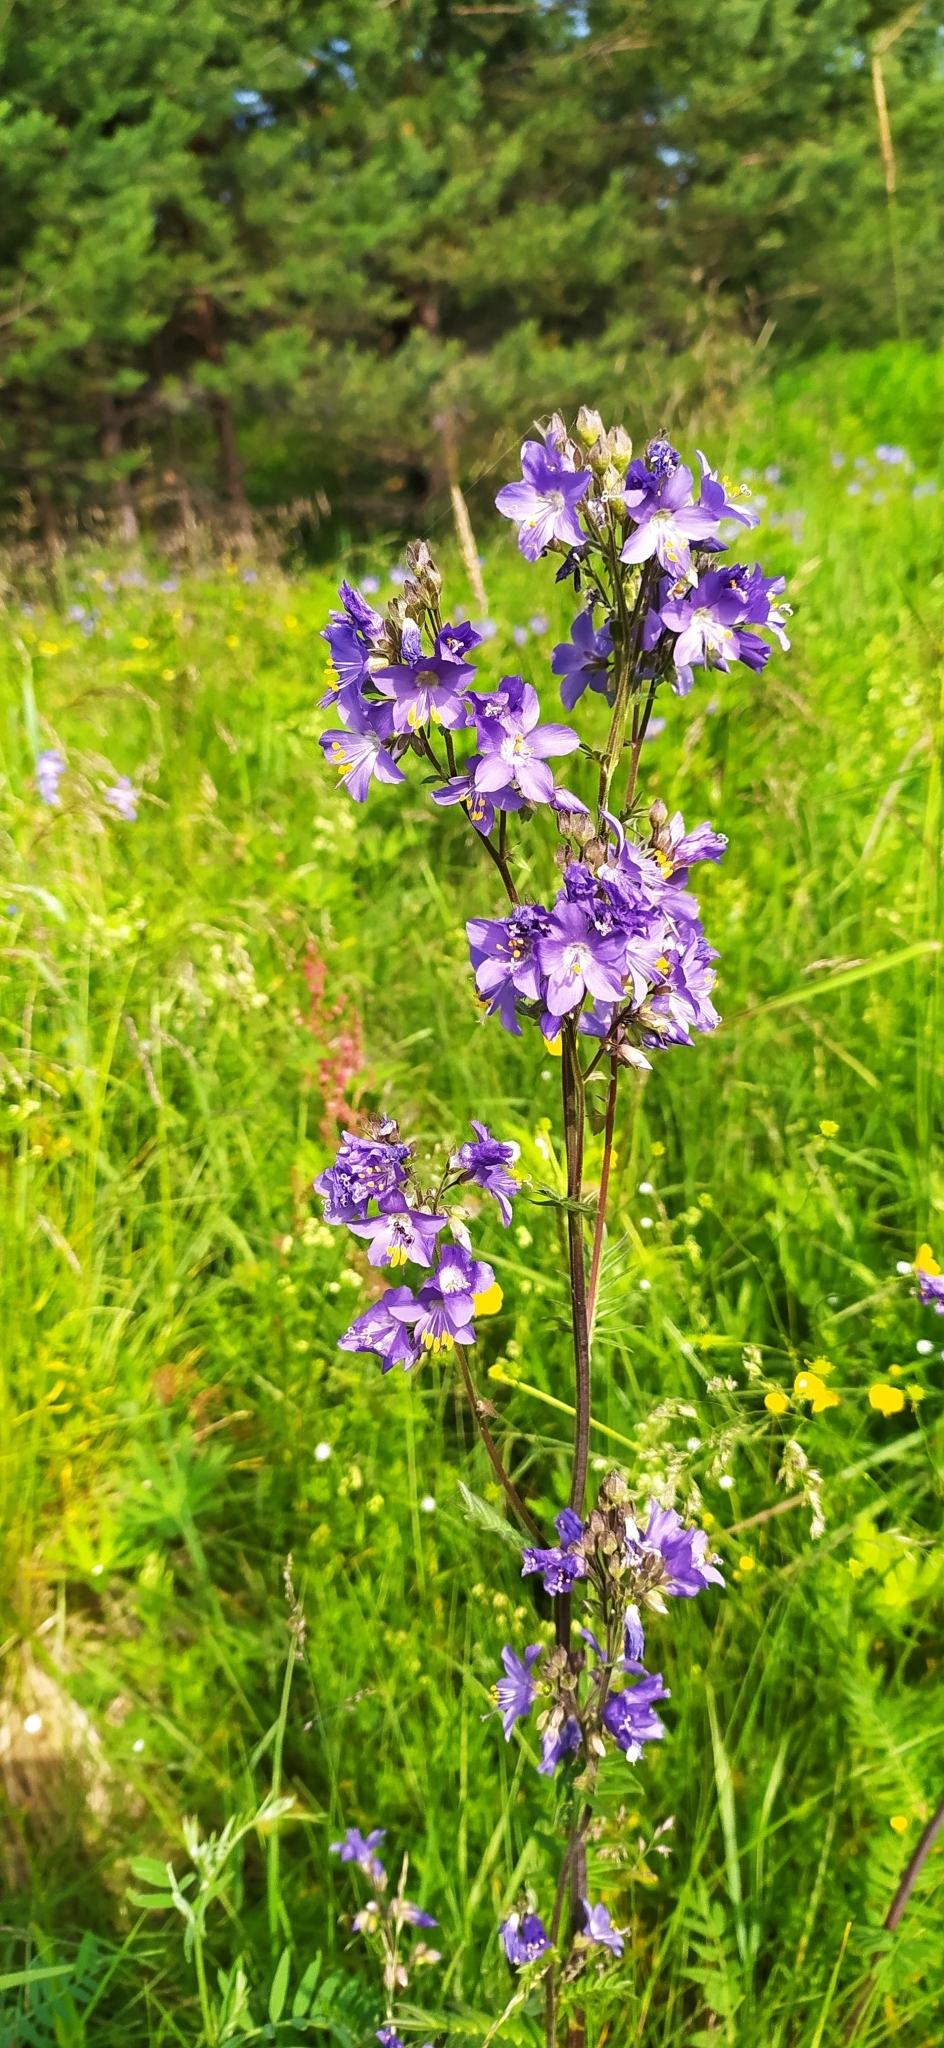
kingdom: Plantae
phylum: Tracheophyta
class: Magnoliopsida
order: Ericales
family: Polemoniaceae
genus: Polemonium
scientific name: Polemonium caeruleum
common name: Jacob's-ladder
